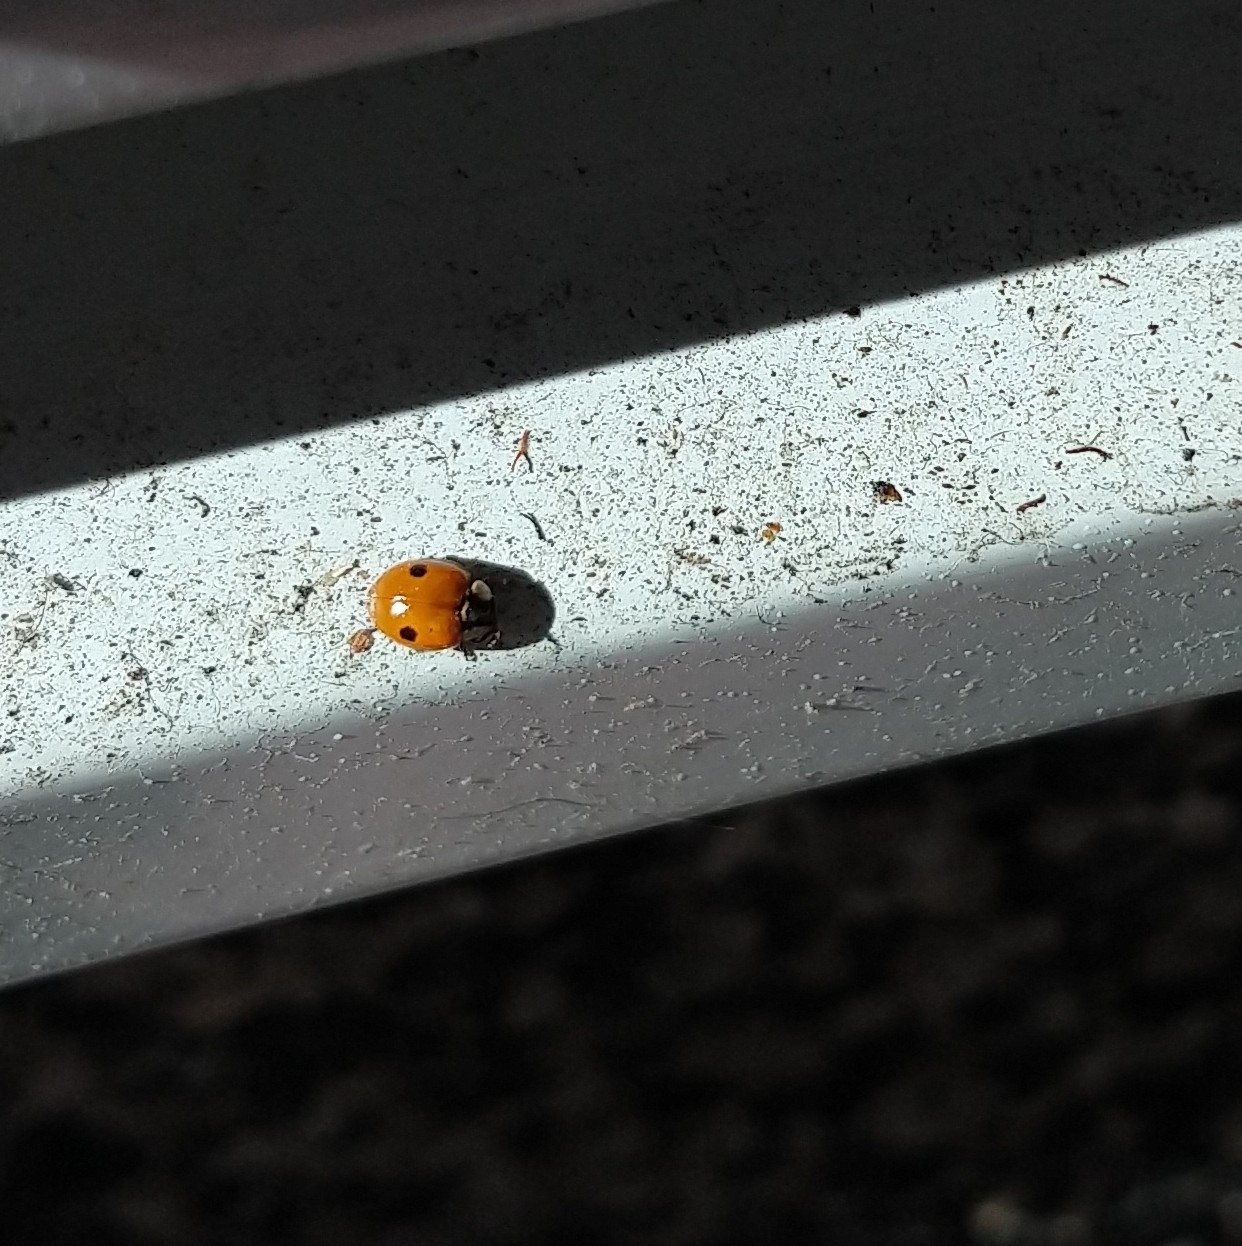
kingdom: Animalia
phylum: Arthropoda
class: Insecta
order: Coleoptera
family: Coccinellidae
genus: Adalia
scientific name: Adalia bipunctata
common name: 2-spot ladybird
